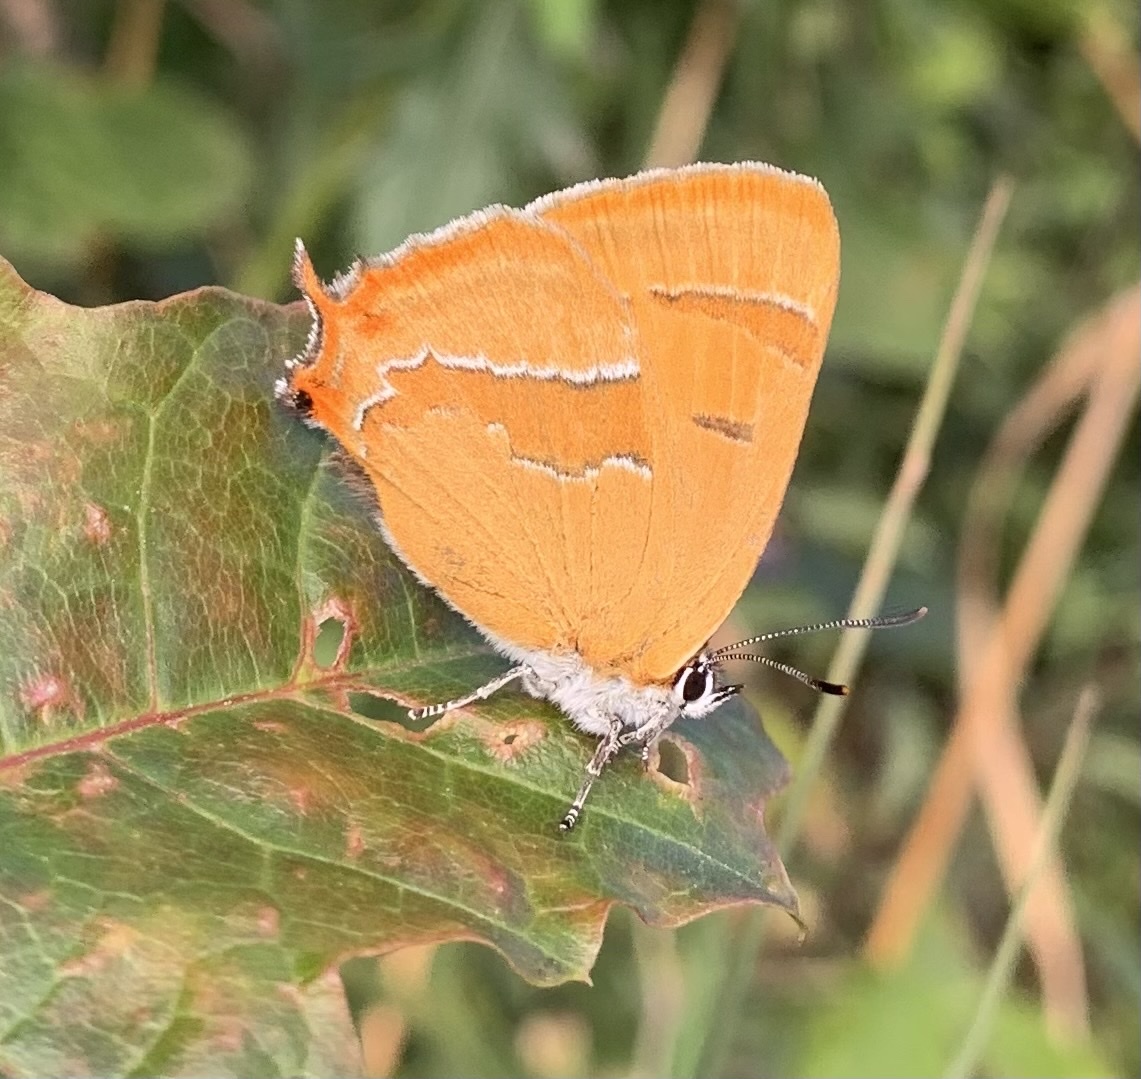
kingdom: Animalia
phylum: Arthropoda
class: Insecta
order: Lepidoptera
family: Lycaenidae
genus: Thecla
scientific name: Thecla betulae
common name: Brown hairstreak
